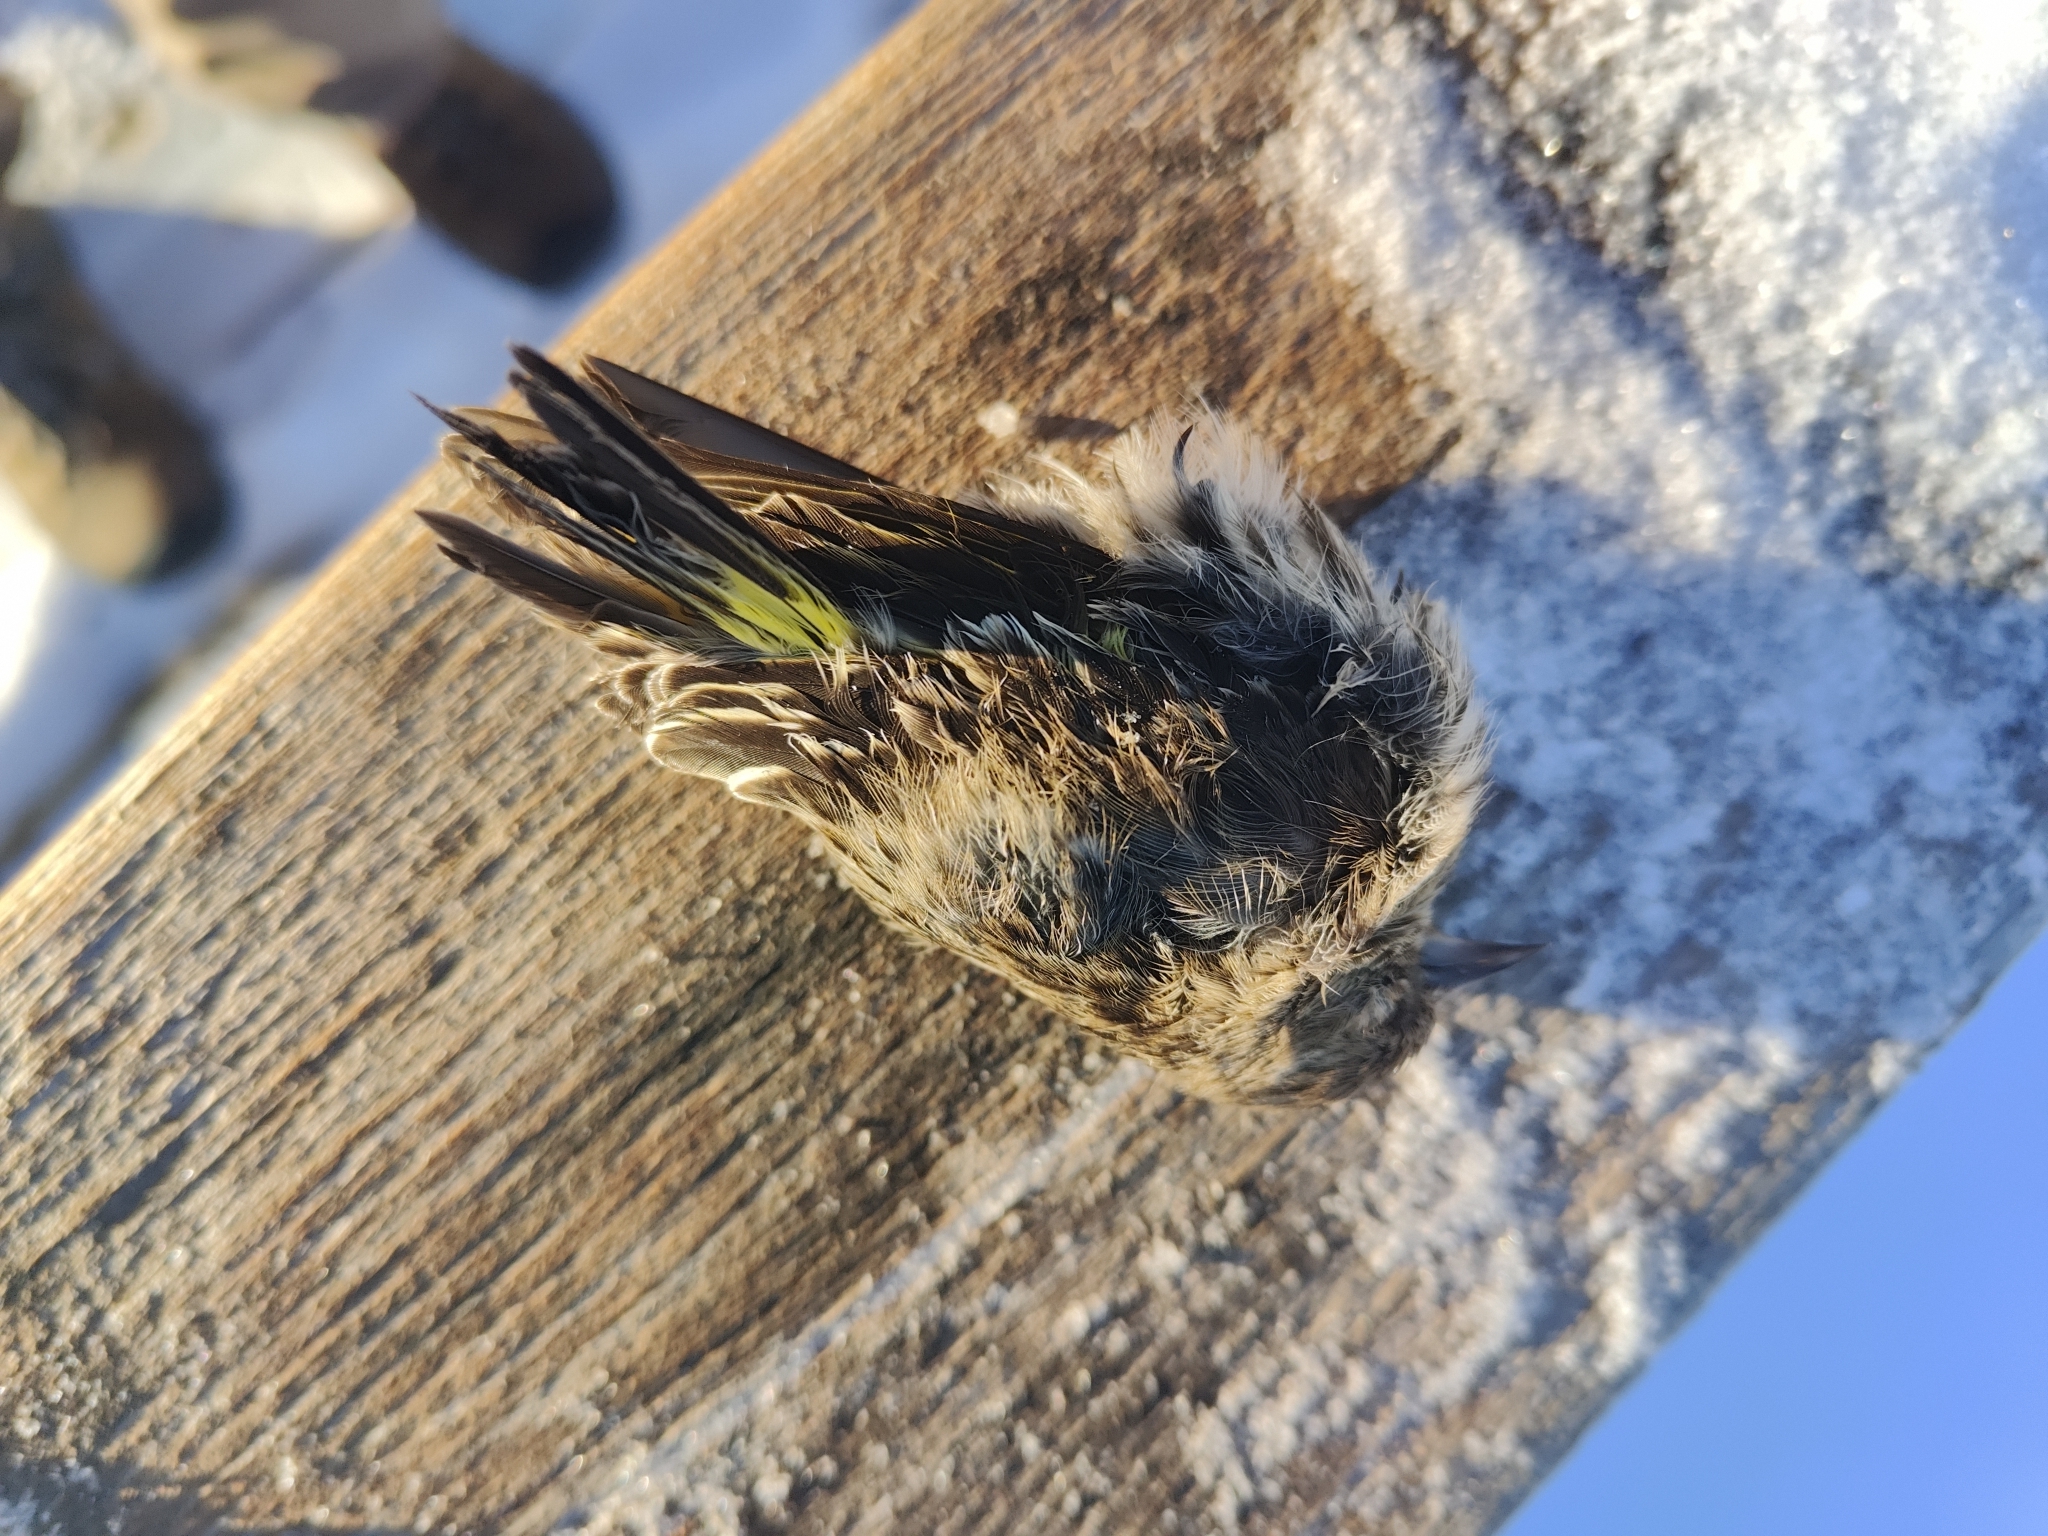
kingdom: Animalia
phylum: Chordata
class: Aves
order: Passeriformes
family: Fringillidae
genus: Spinus
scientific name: Spinus pinus
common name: Pine siskin
